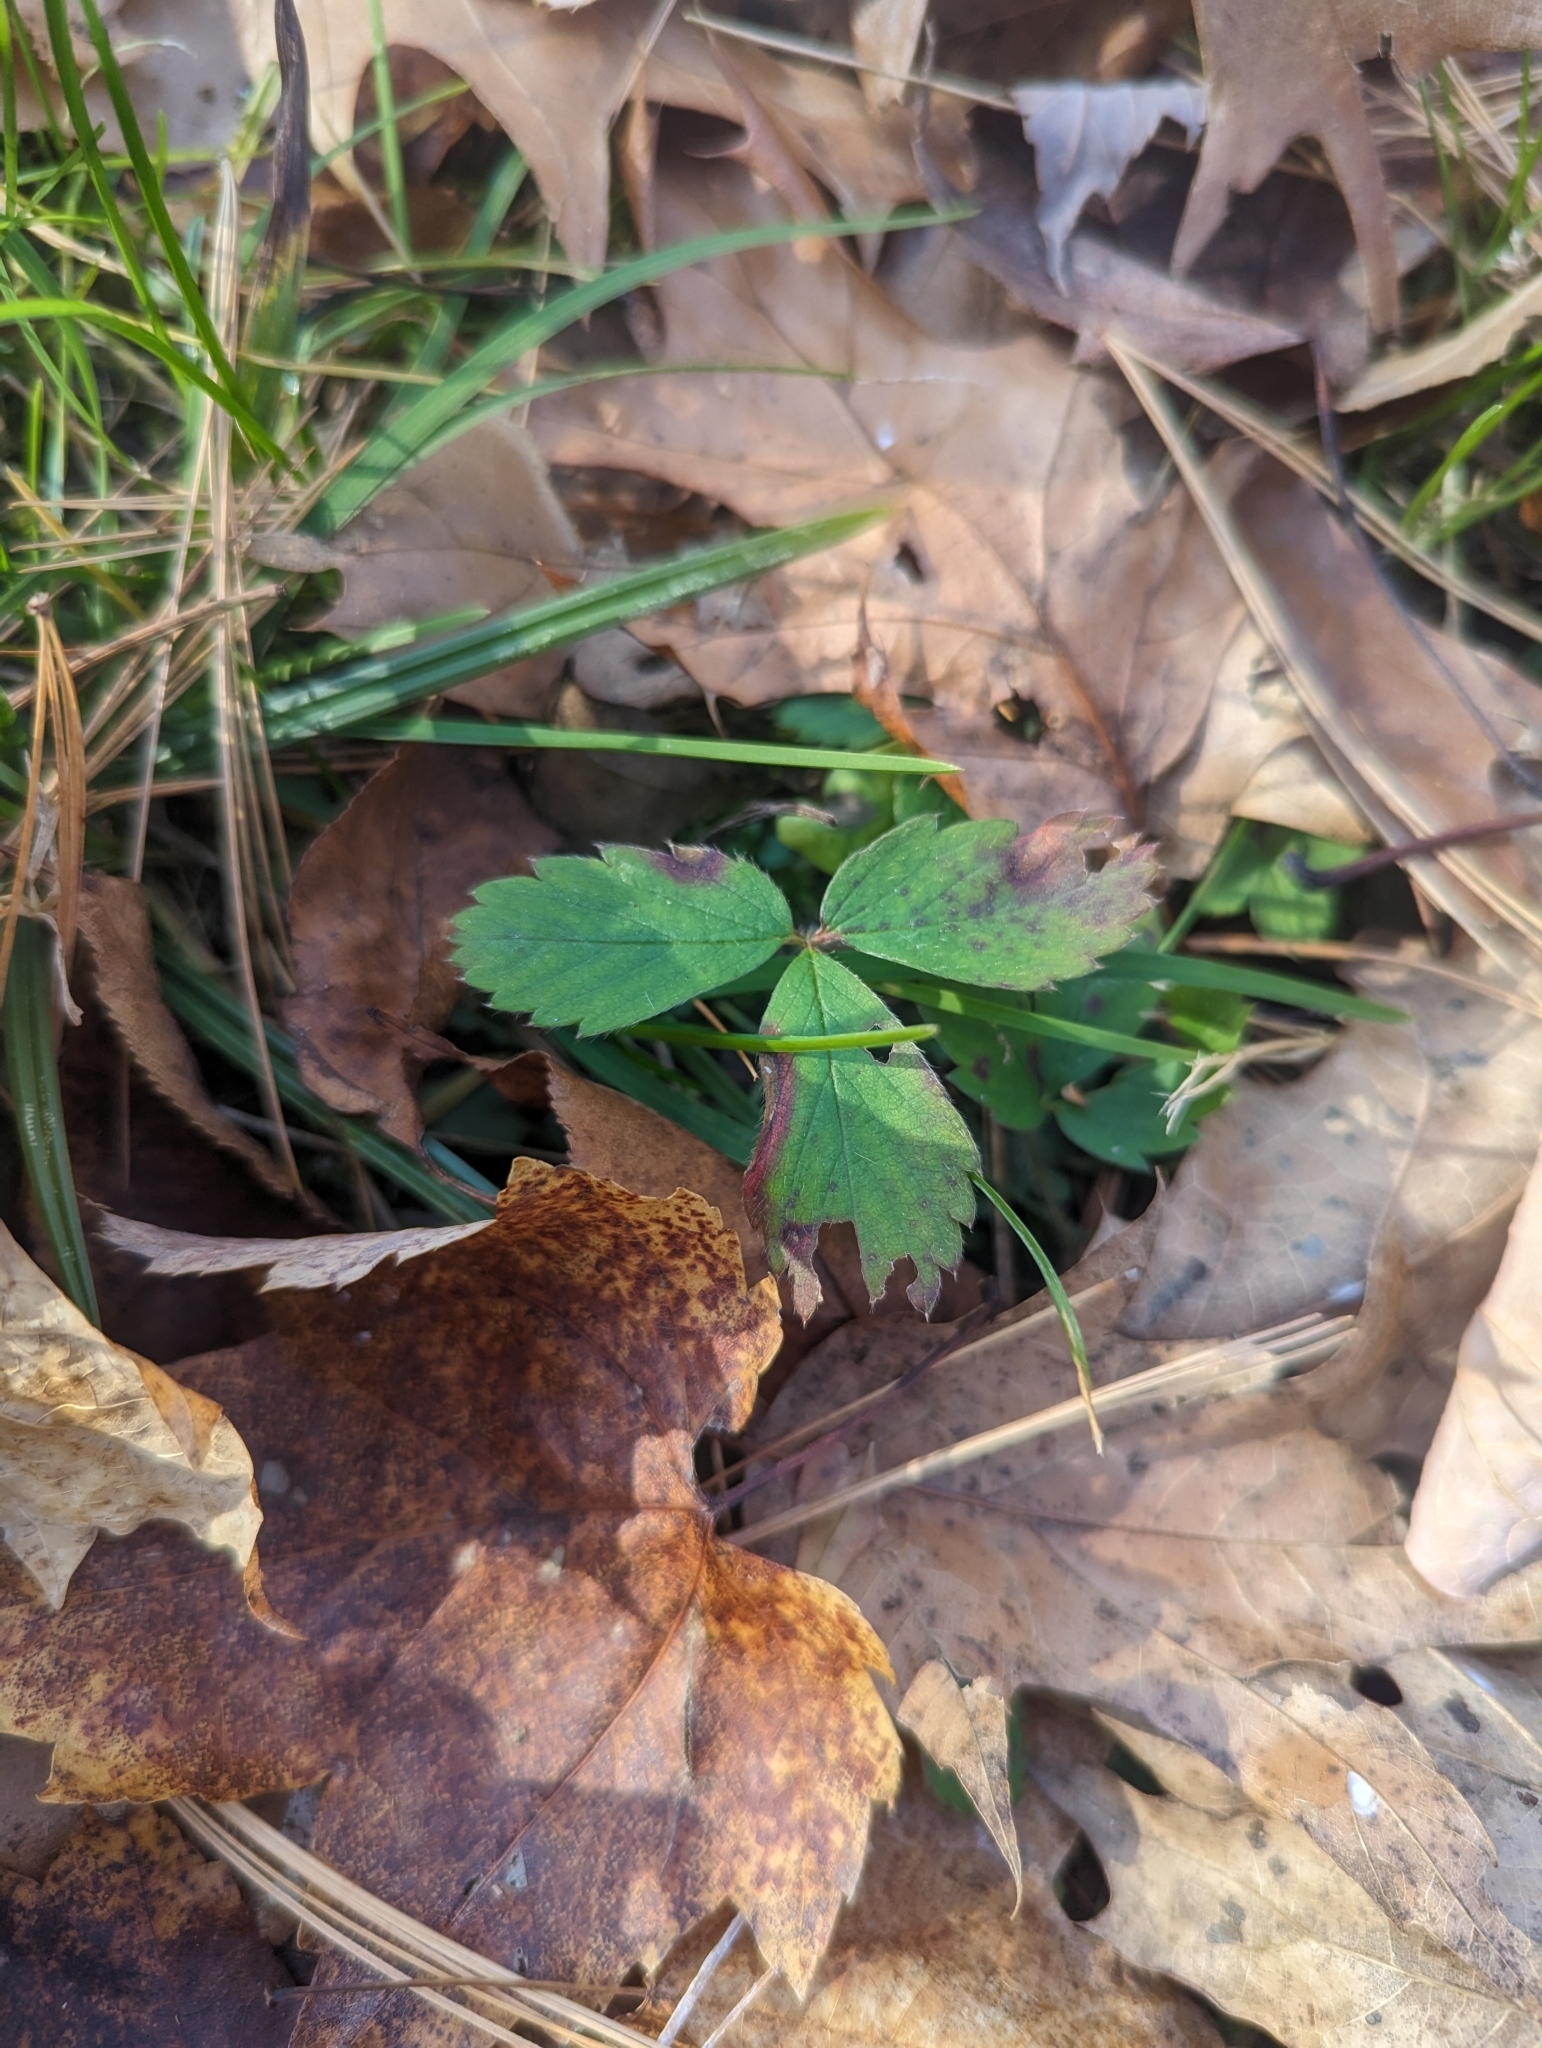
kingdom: Plantae
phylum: Tracheophyta
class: Magnoliopsida
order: Rosales
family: Rosaceae
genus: Fragaria
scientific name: Fragaria virginiana
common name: Thickleaved wild strawberry
